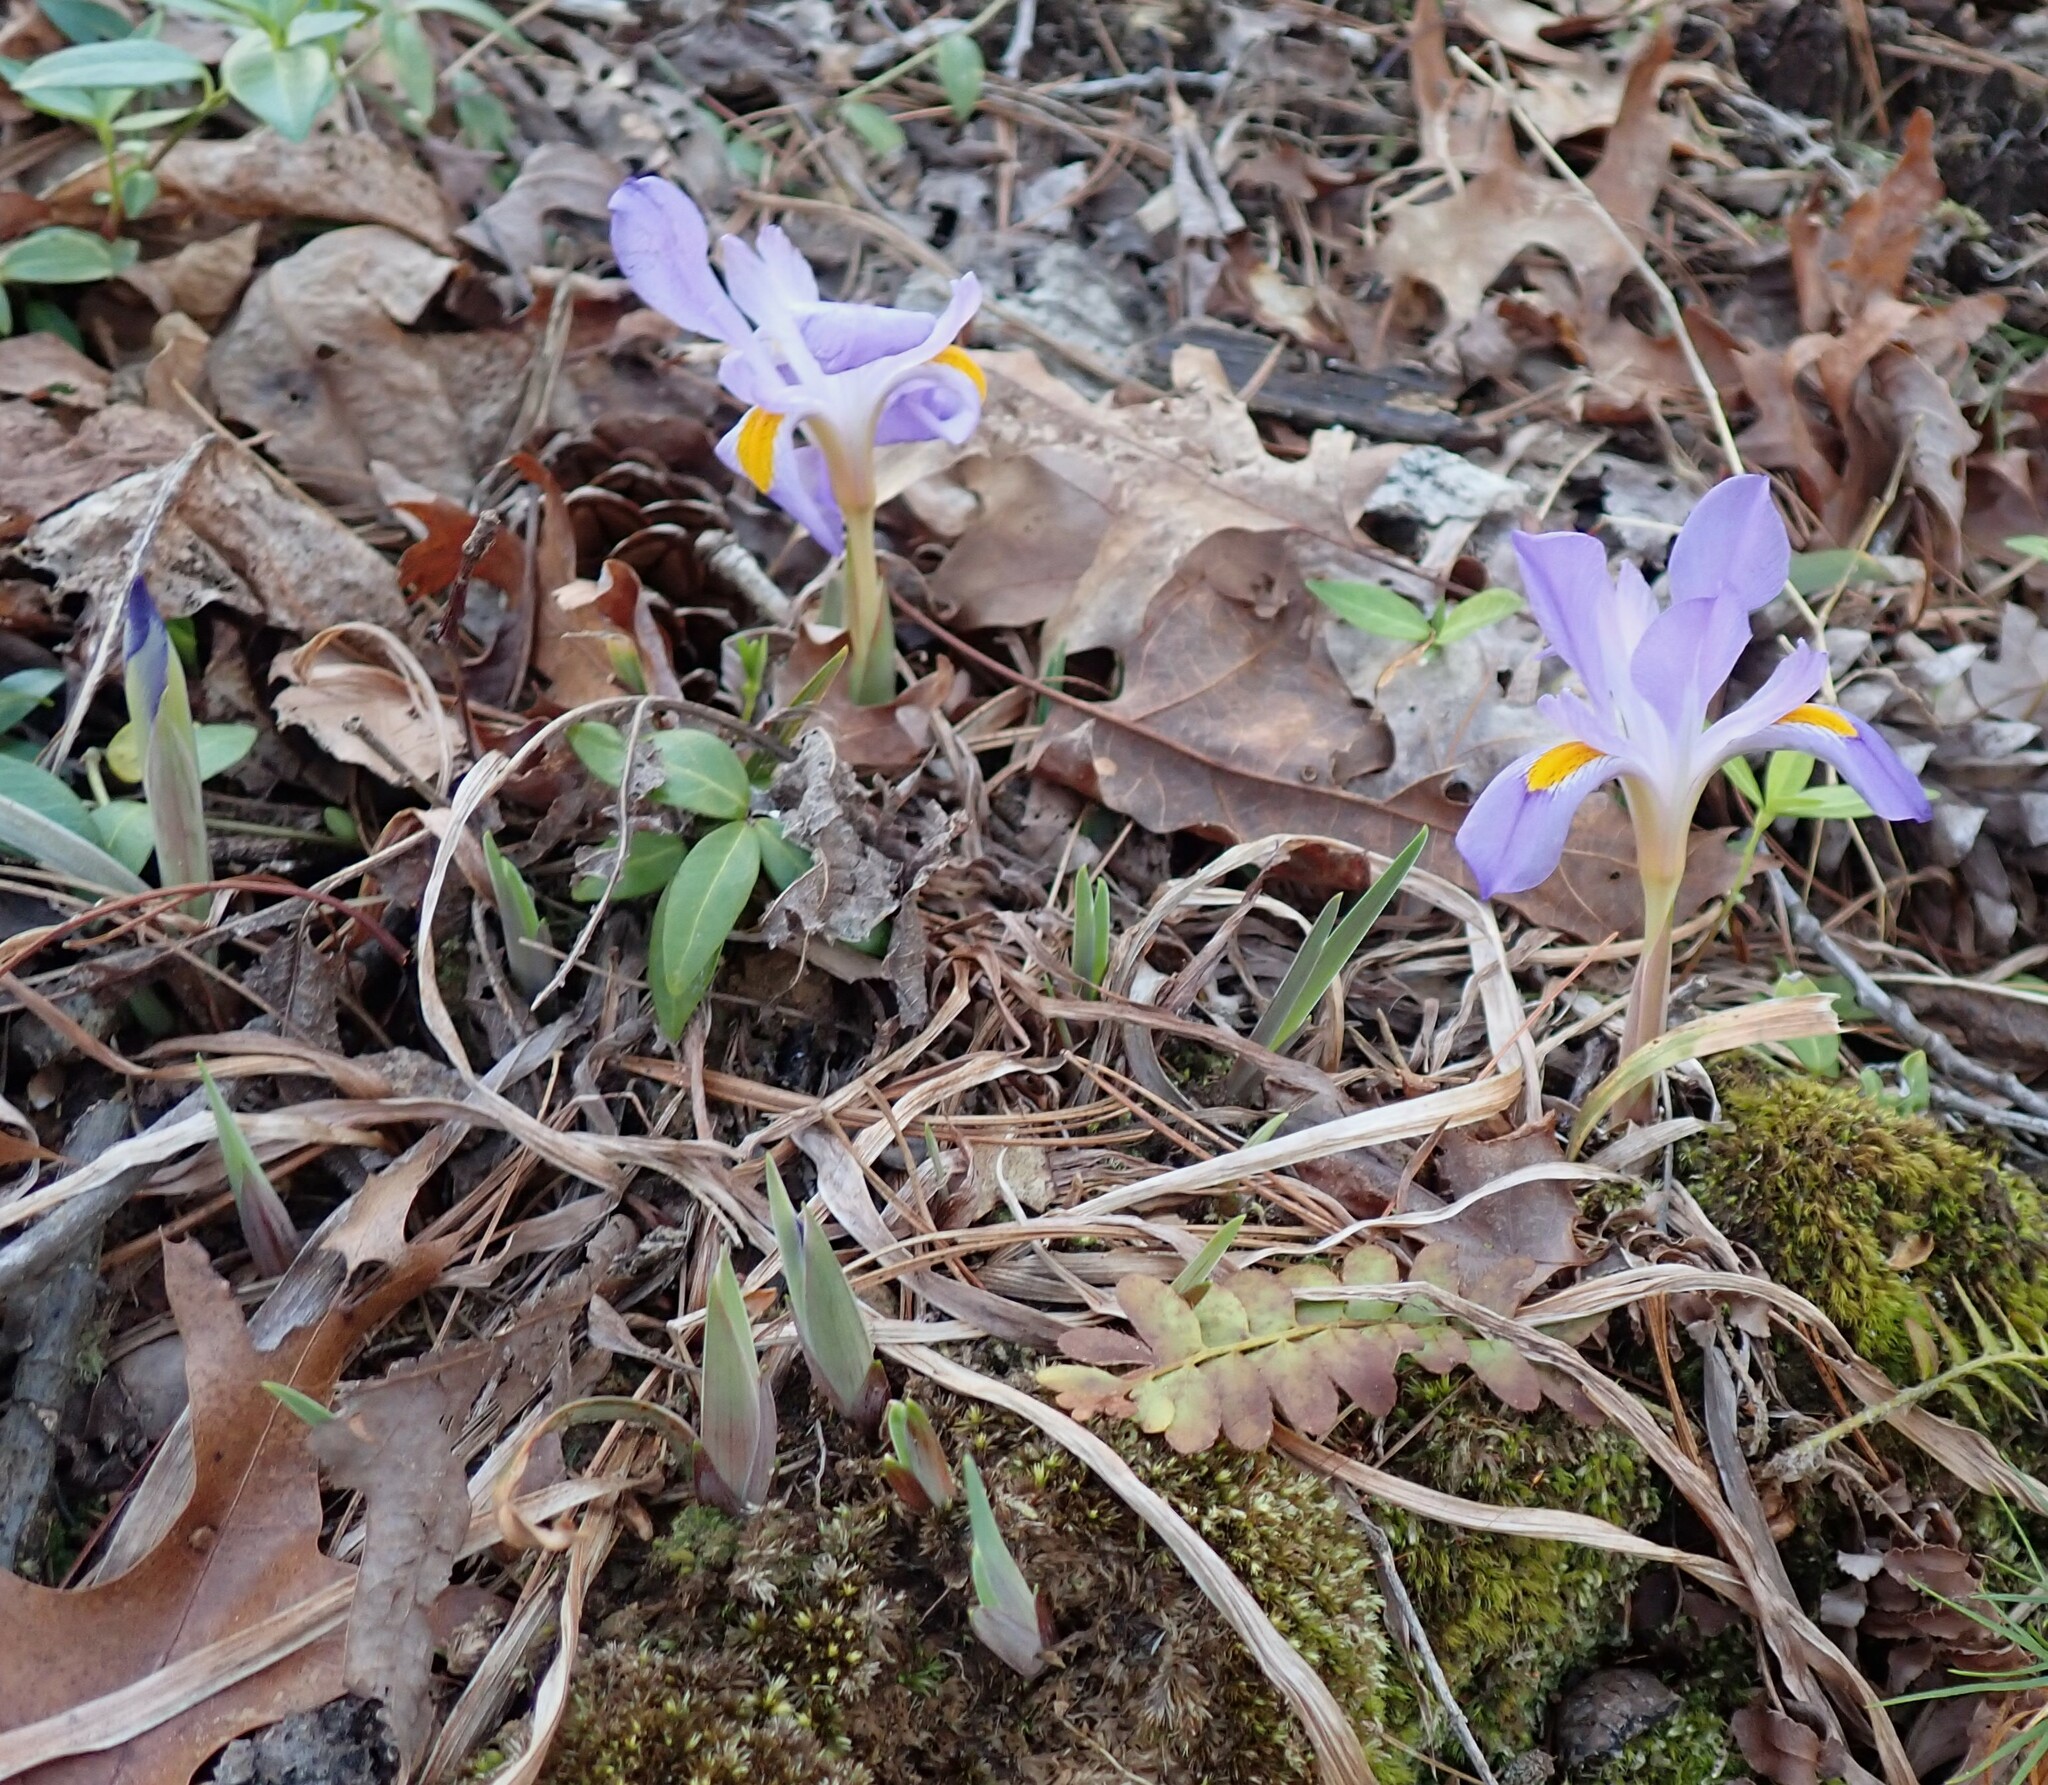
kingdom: Plantae
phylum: Tracheophyta
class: Liliopsida
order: Asparagales
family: Iridaceae
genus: Iris
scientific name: Iris verna
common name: Dwarf iris
